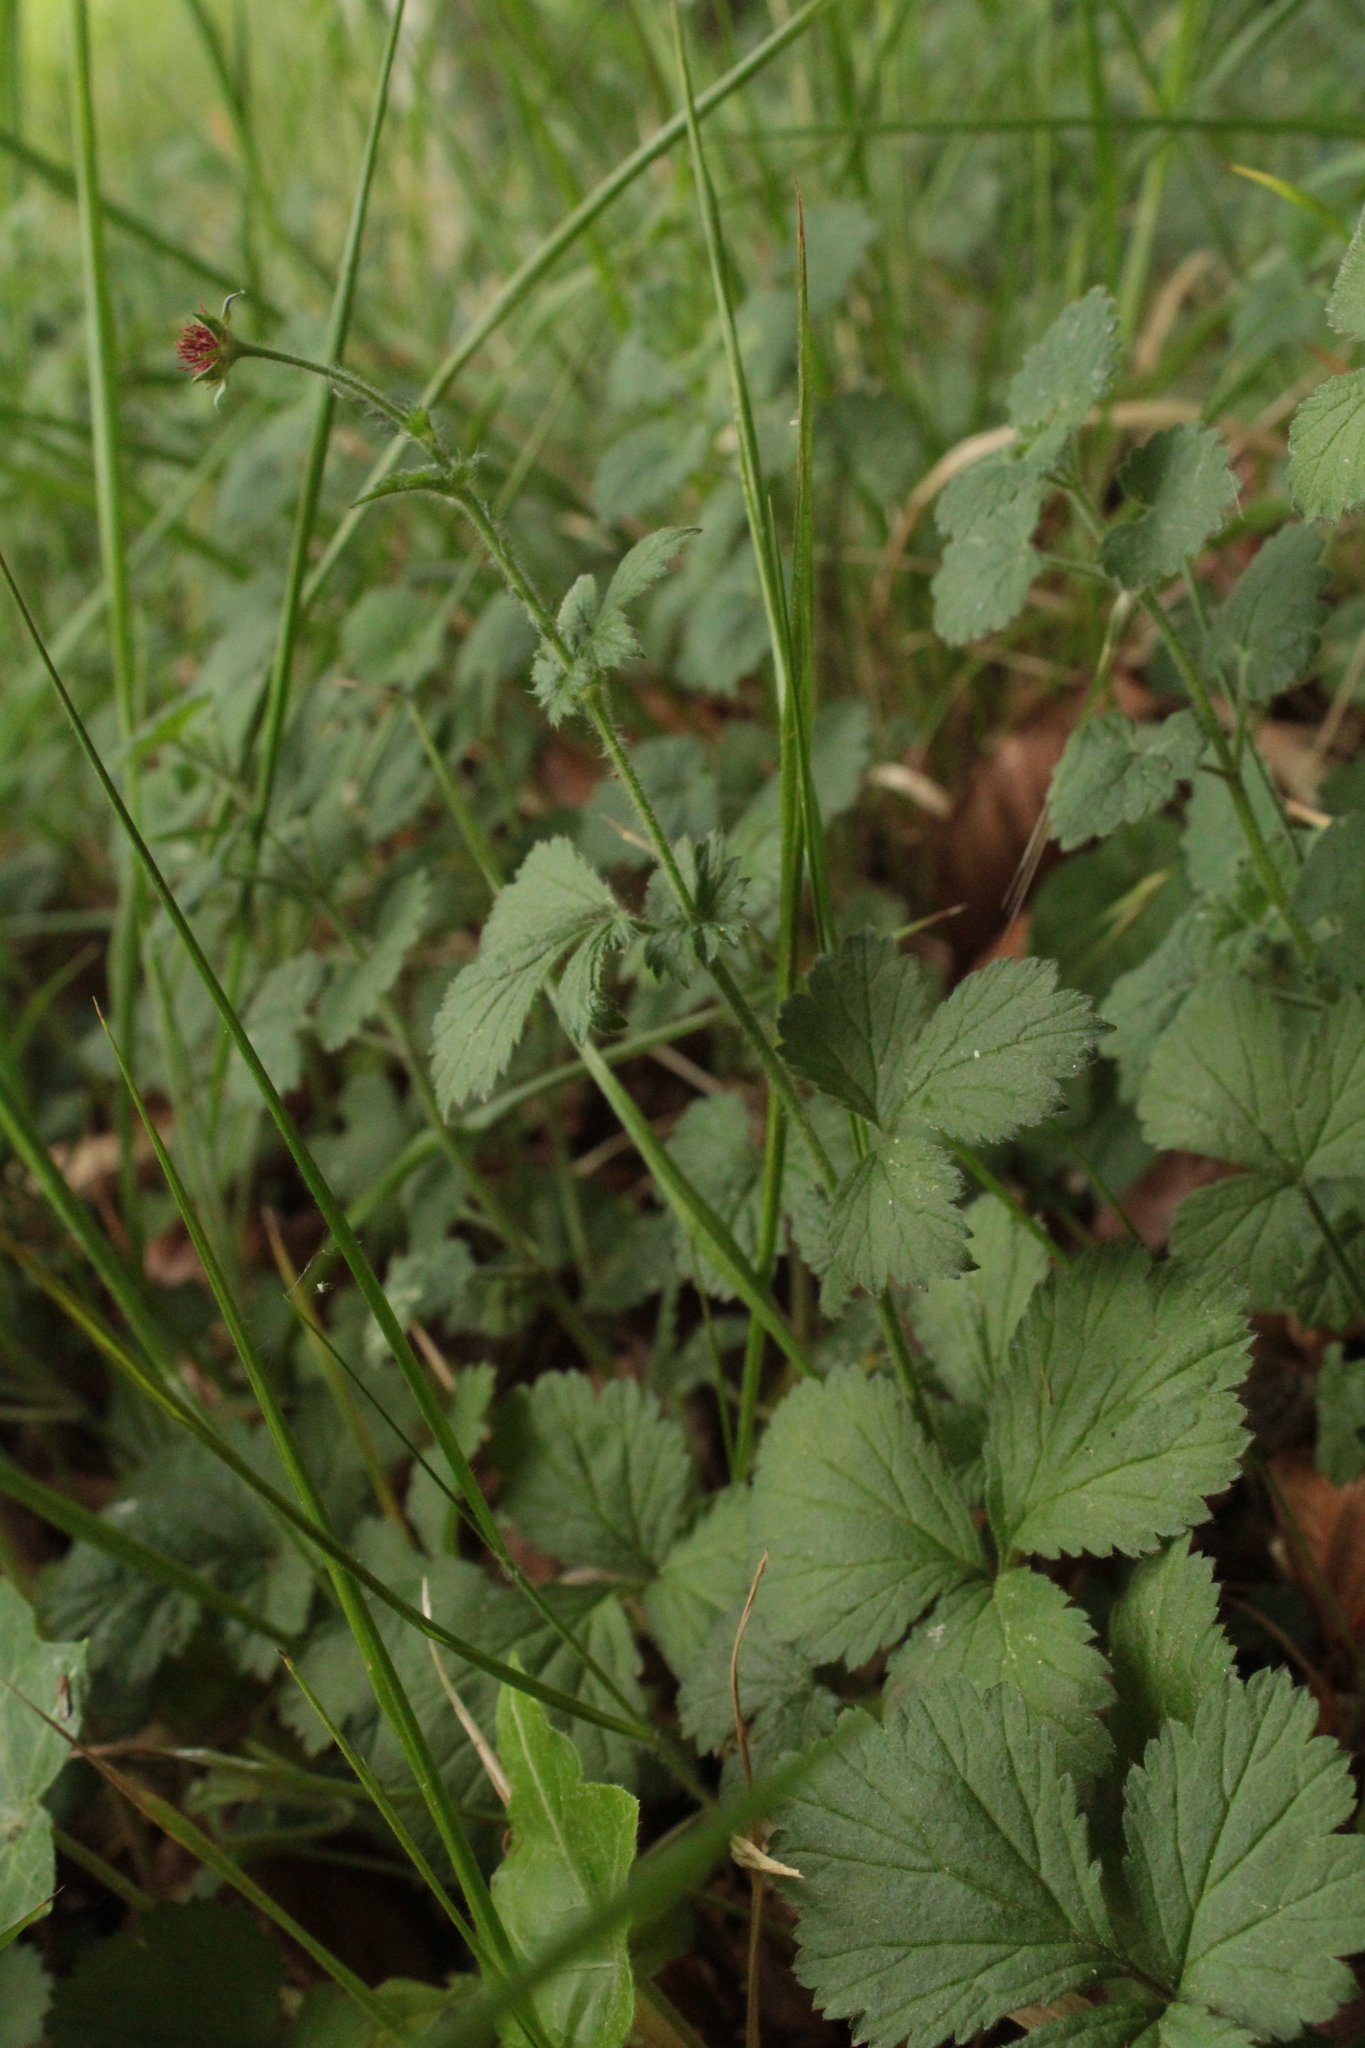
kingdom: Plantae
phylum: Tracheophyta
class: Magnoliopsida
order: Rosales
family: Rosaceae
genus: Geum
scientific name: Geum urbanum
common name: Wood avens
